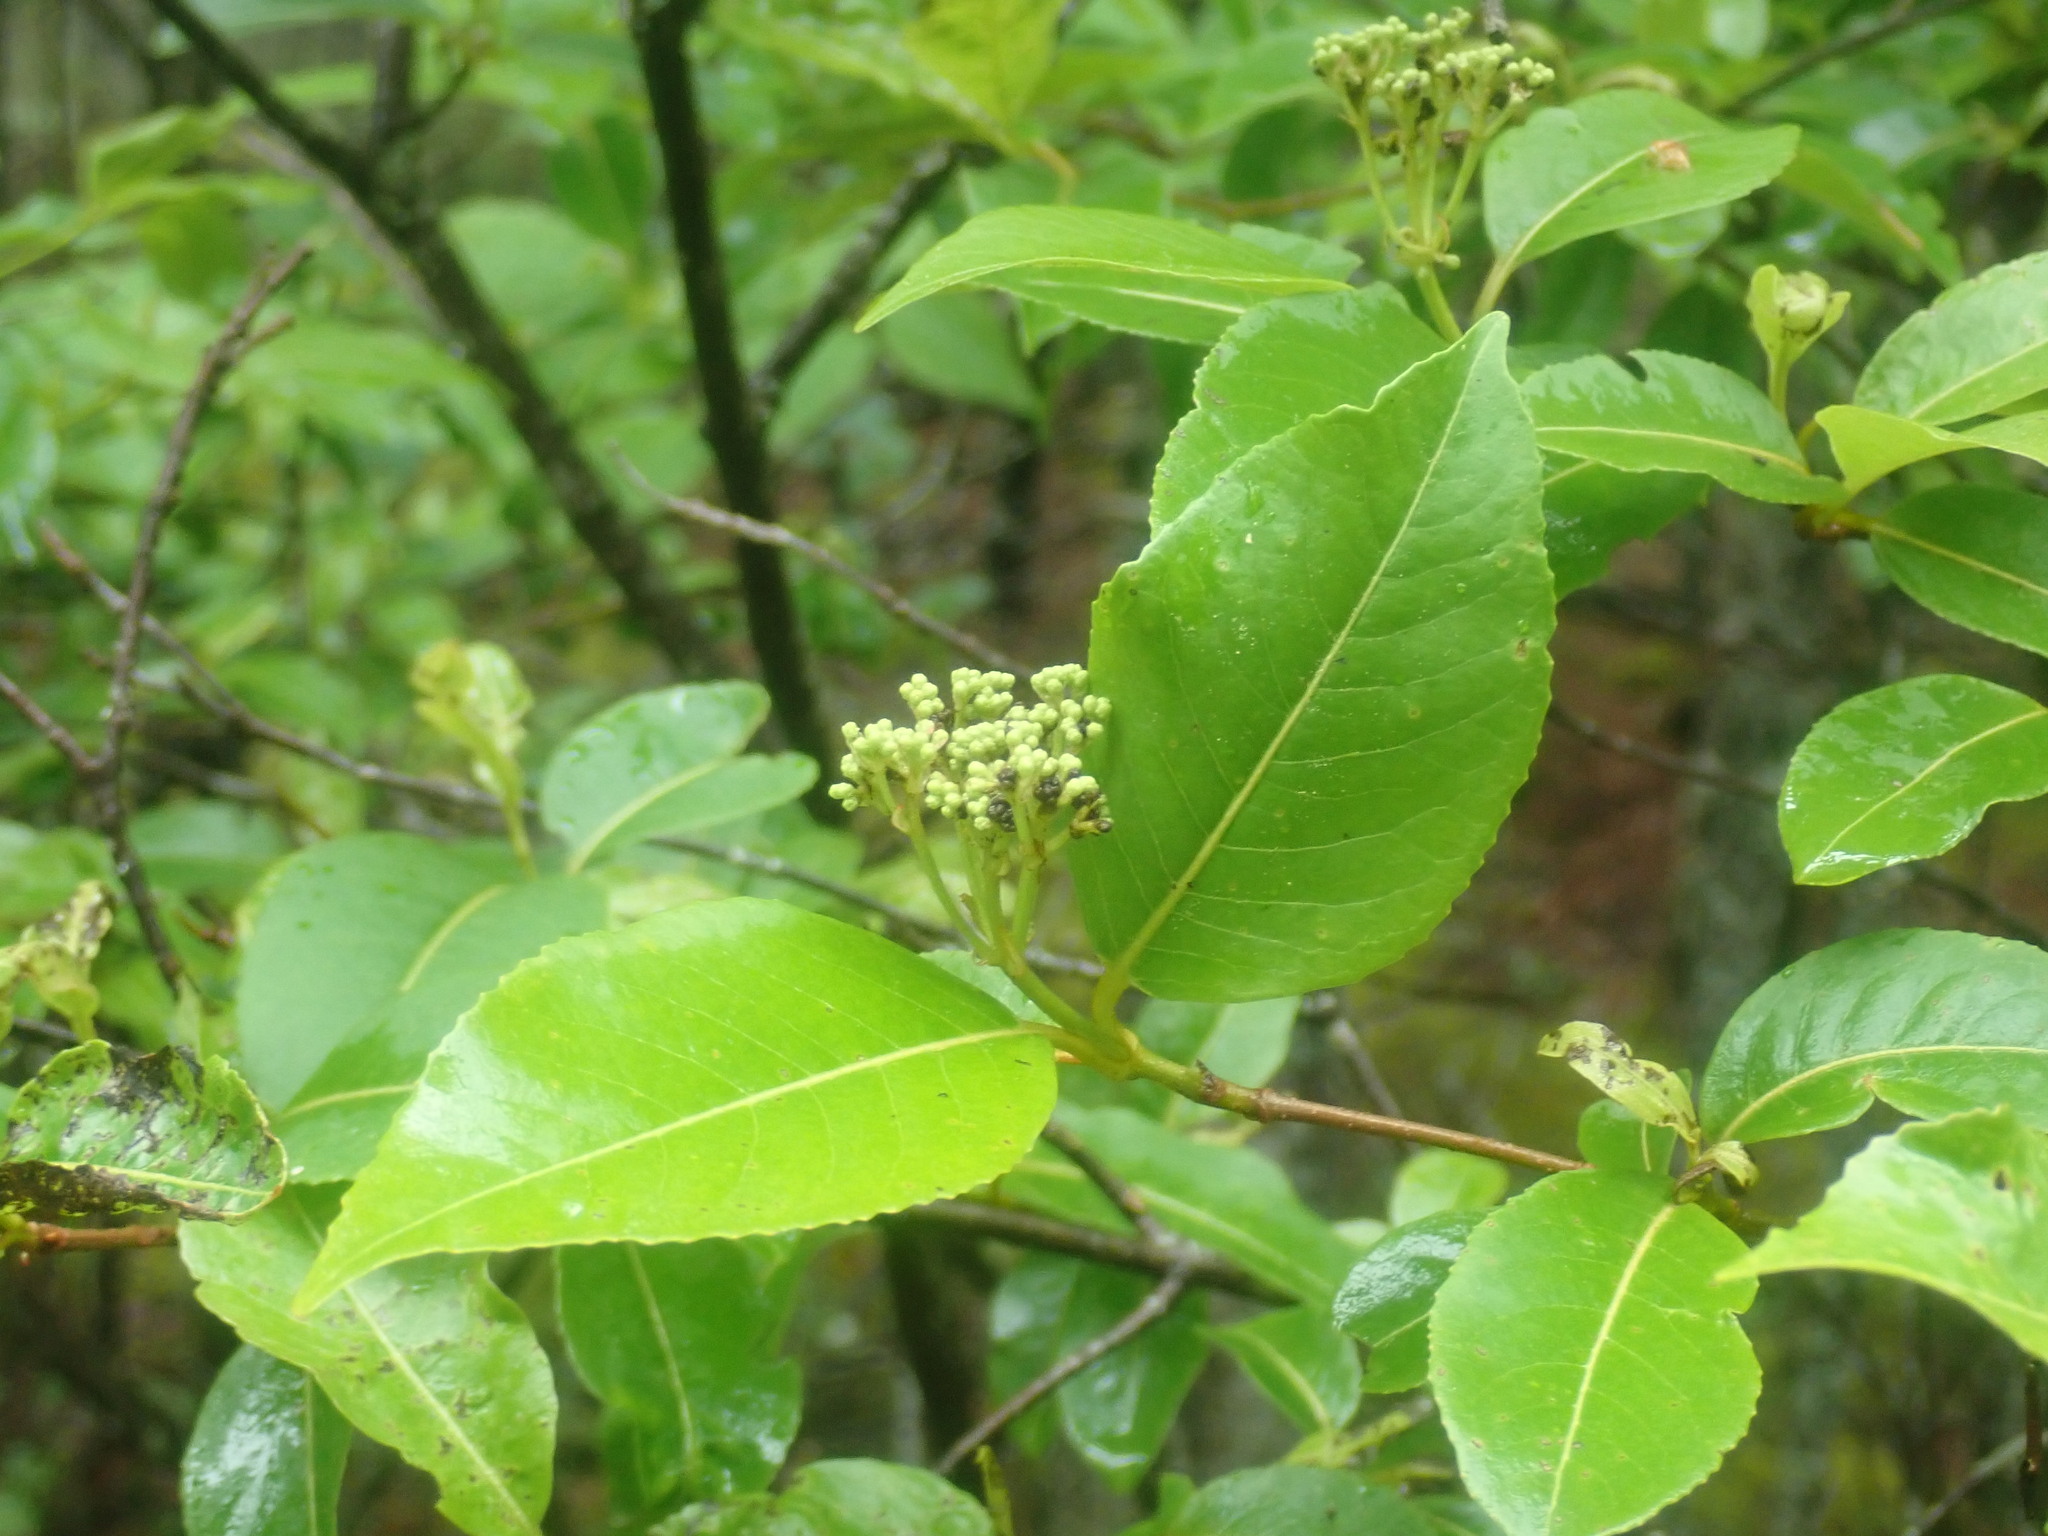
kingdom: Plantae
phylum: Tracheophyta
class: Magnoliopsida
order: Dipsacales
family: Viburnaceae
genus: Viburnum
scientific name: Viburnum cassinoides
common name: Swamp haw
